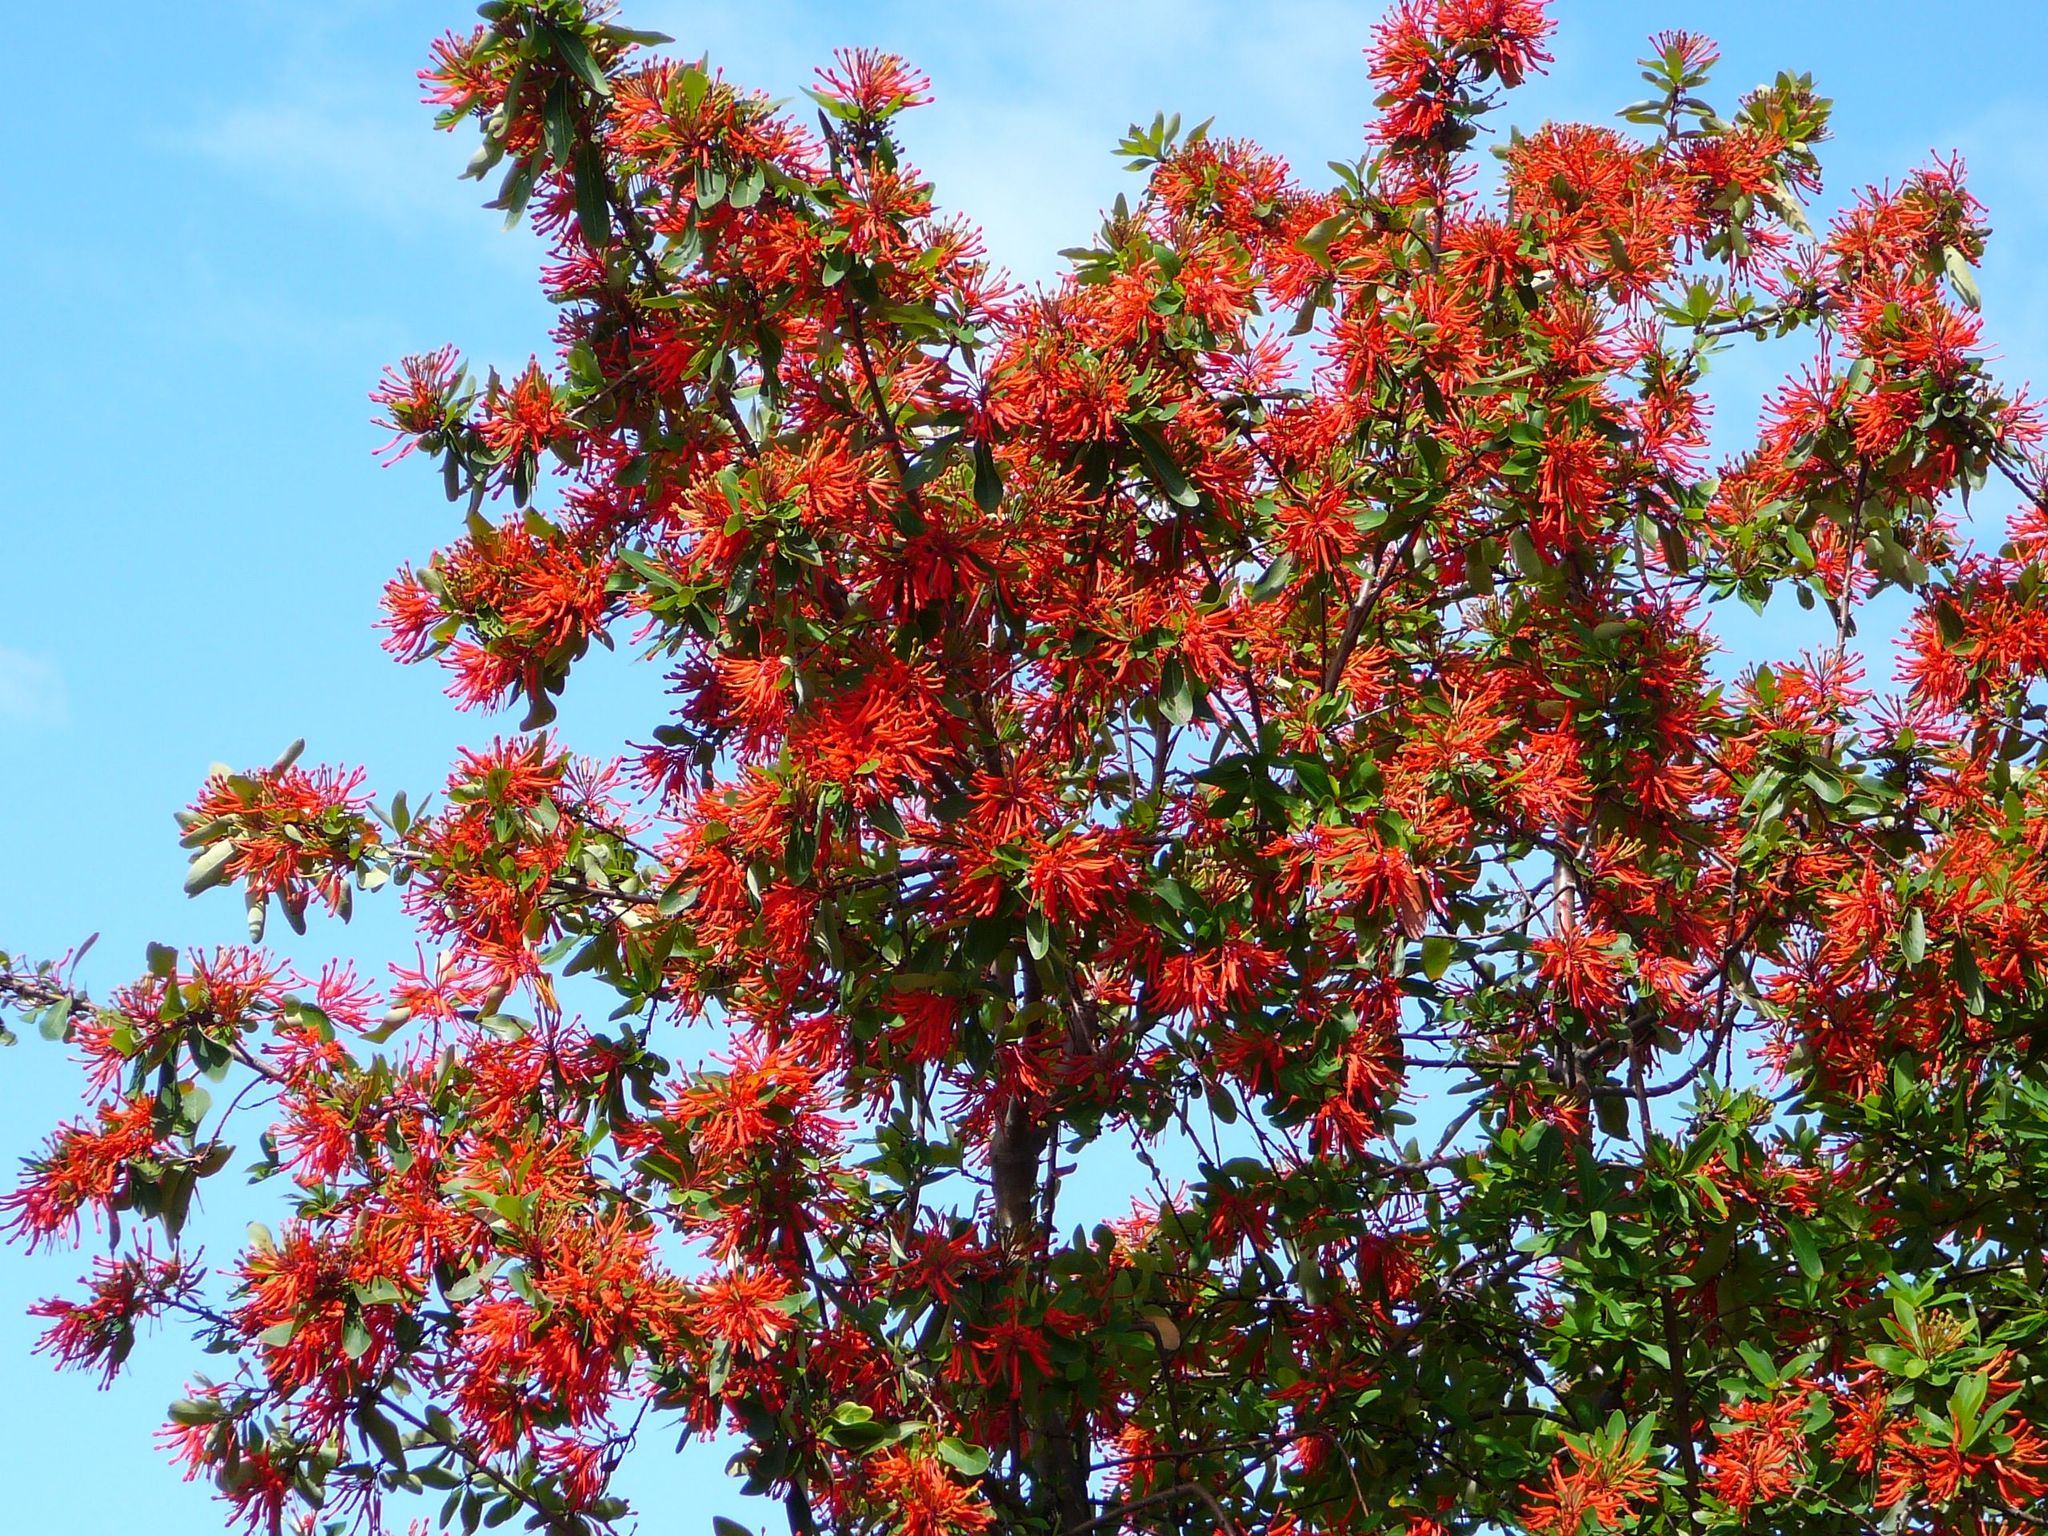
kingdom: Plantae
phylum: Tracheophyta
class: Magnoliopsida
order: Proteales
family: Proteaceae
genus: Embothrium
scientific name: Embothrium coccineum
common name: Chilean firebush
